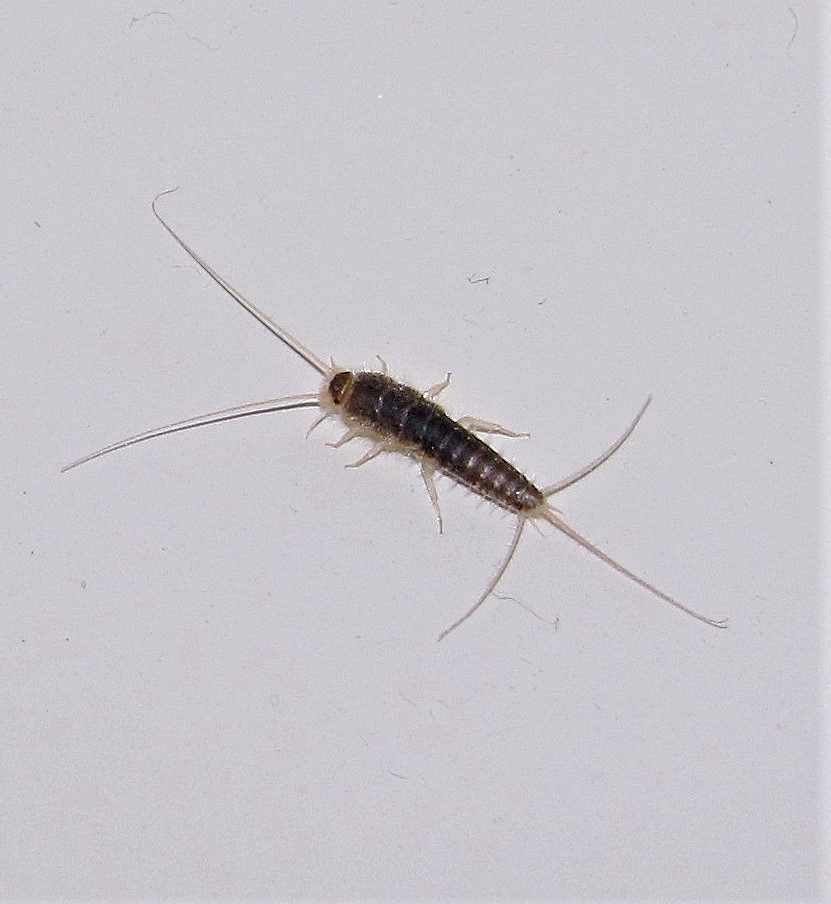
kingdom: Animalia
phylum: Arthropoda
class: Insecta
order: Zygentoma
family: Lepismatidae
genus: Ctenolepisma
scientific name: Ctenolepisma longicaudatum
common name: Silverfish
